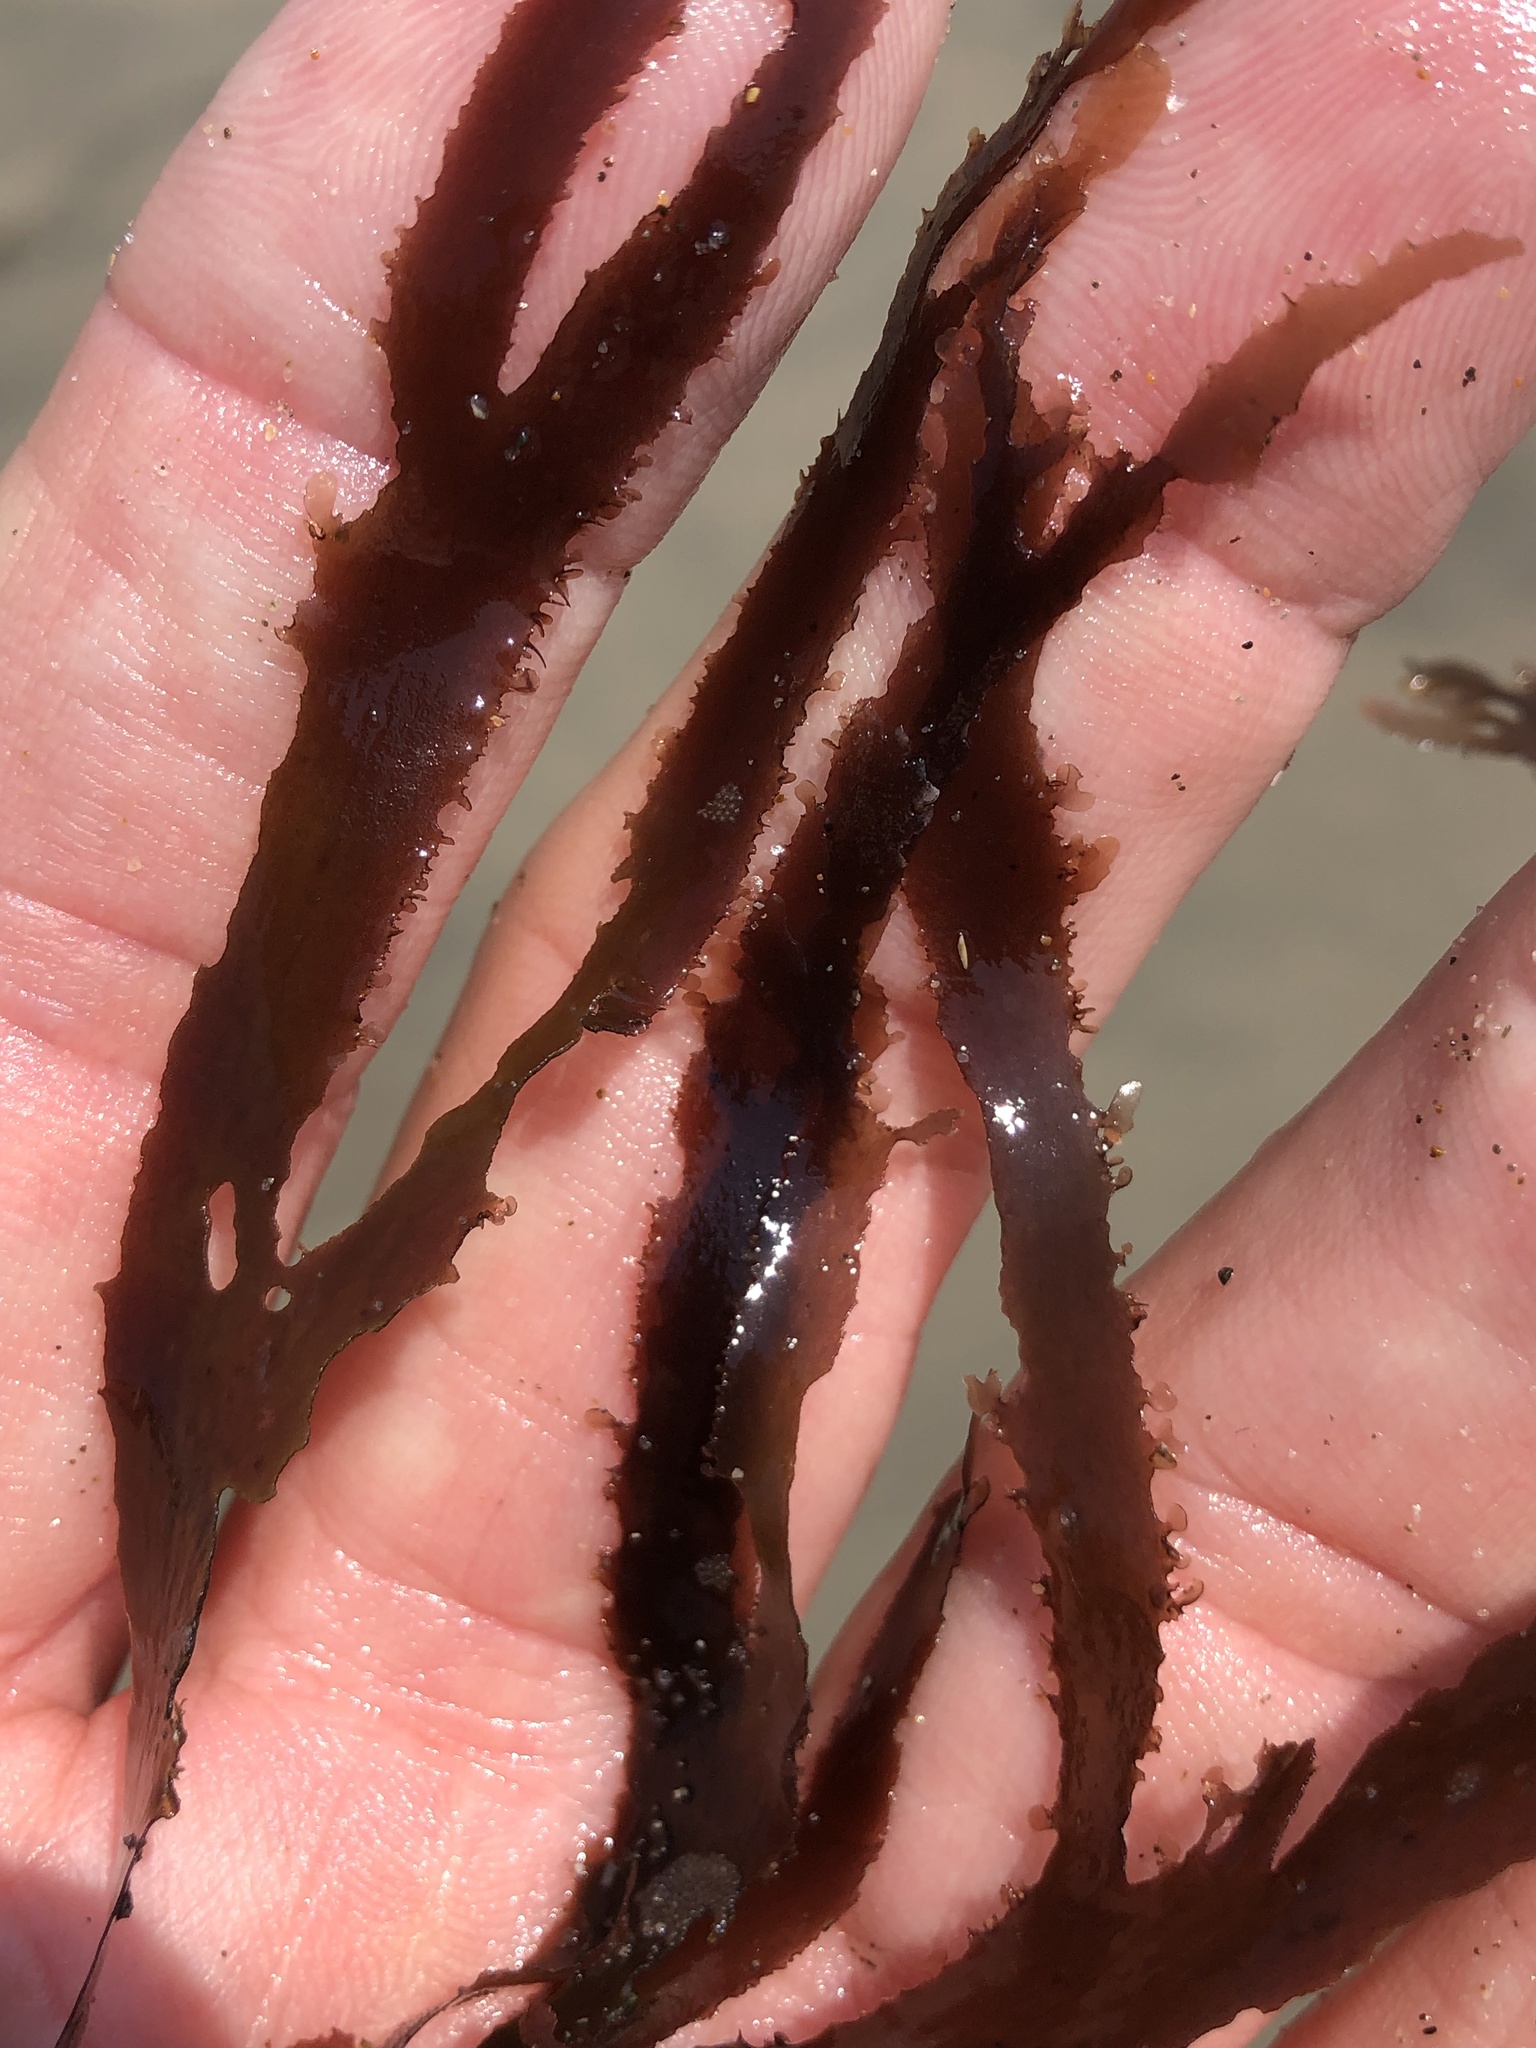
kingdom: Plantae
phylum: Rhodophyta
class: Florideophyceae
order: Ceramiales
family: Delesseriaceae
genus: Cryptopleura
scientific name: Cryptopleura violacea
